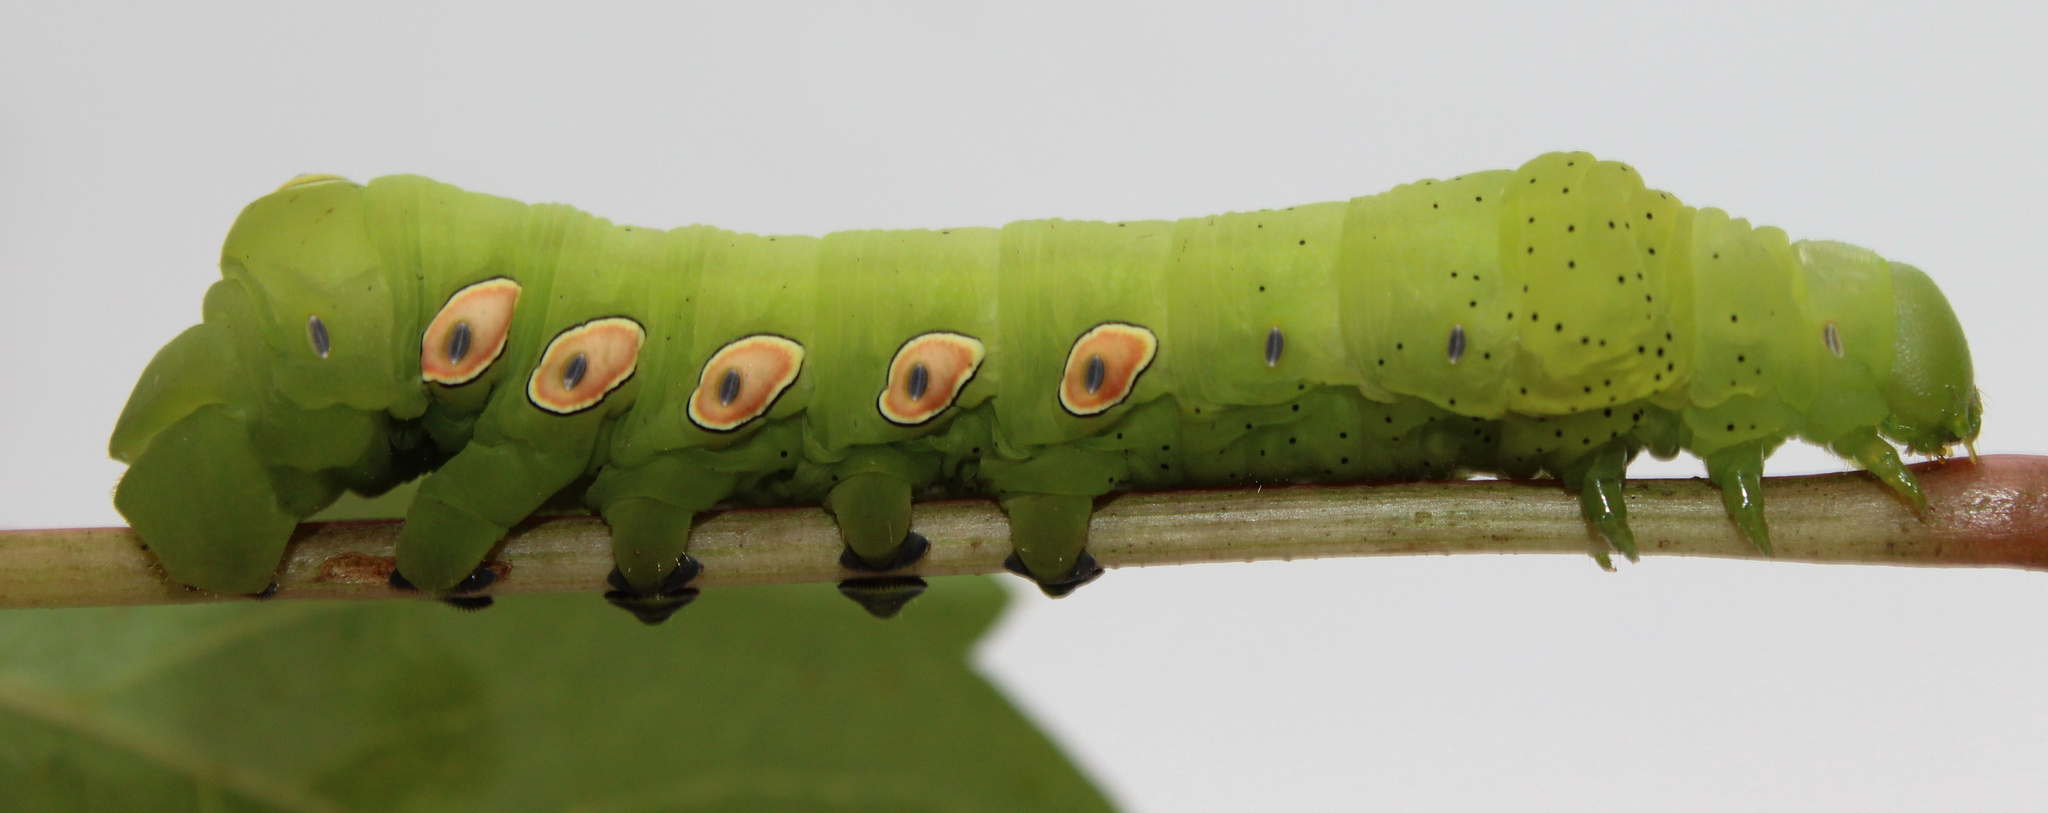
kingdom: Animalia
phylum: Arthropoda
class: Insecta
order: Lepidoptera
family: Sphingidae
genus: Eumorpha
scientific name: Eumorpha pandorus
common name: Pandora sphinx
